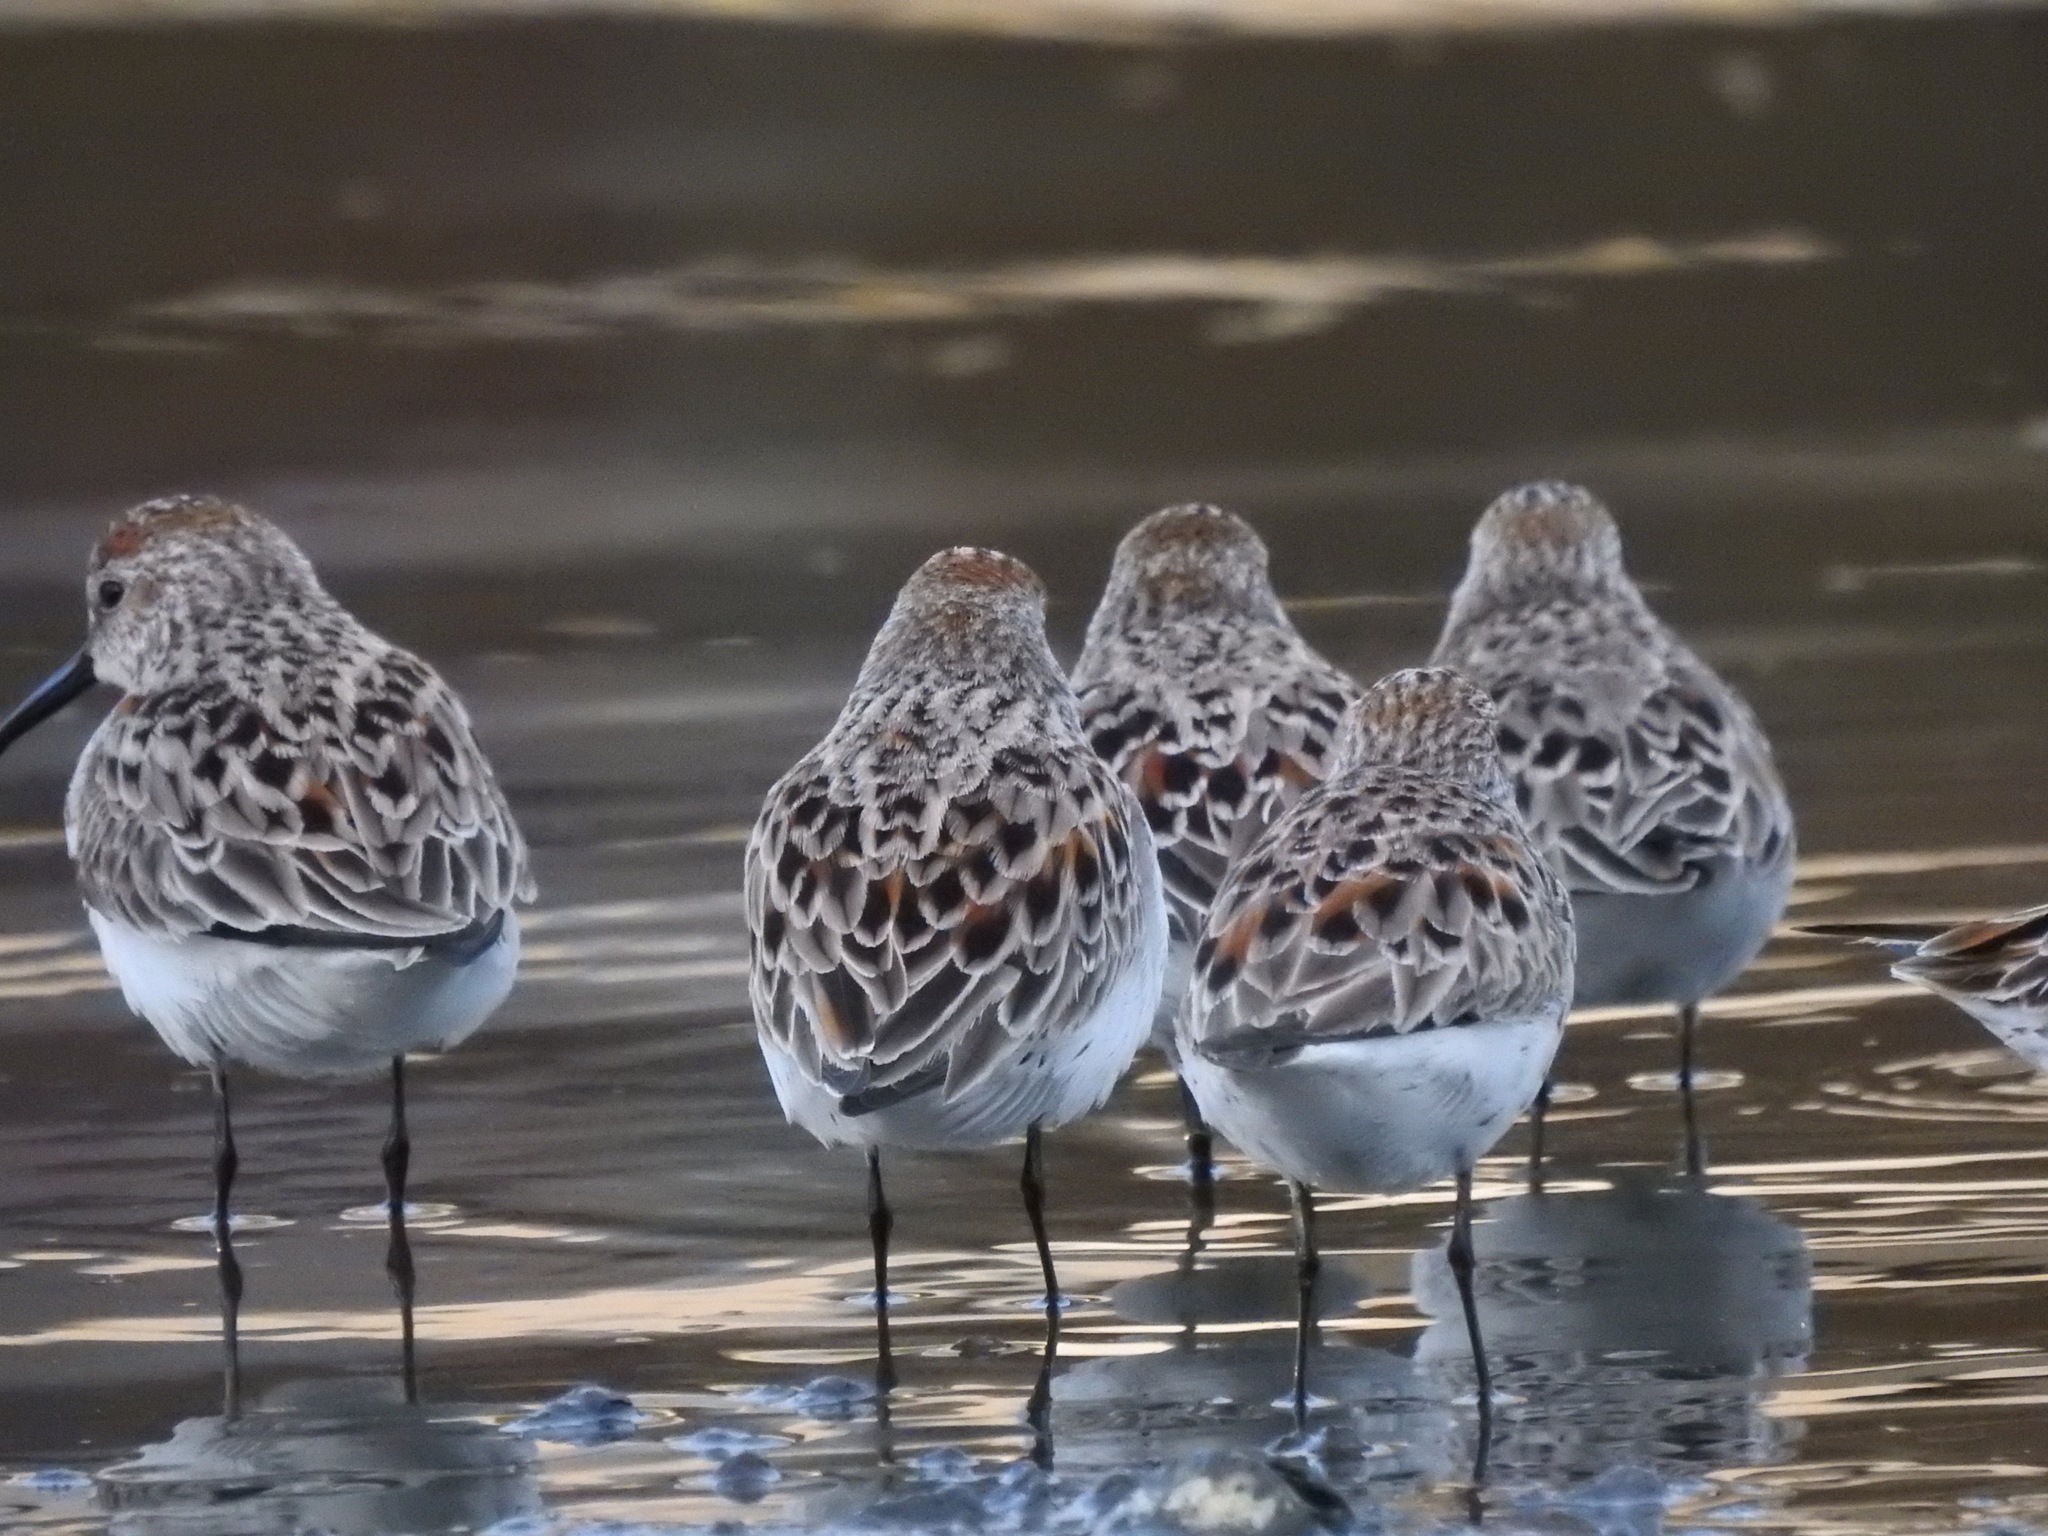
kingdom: Animalia
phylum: Chordata
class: Aves
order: Charadriiformes
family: Scolopacidae
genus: Calidris
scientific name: Calidris mauri
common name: Western sandpiper
